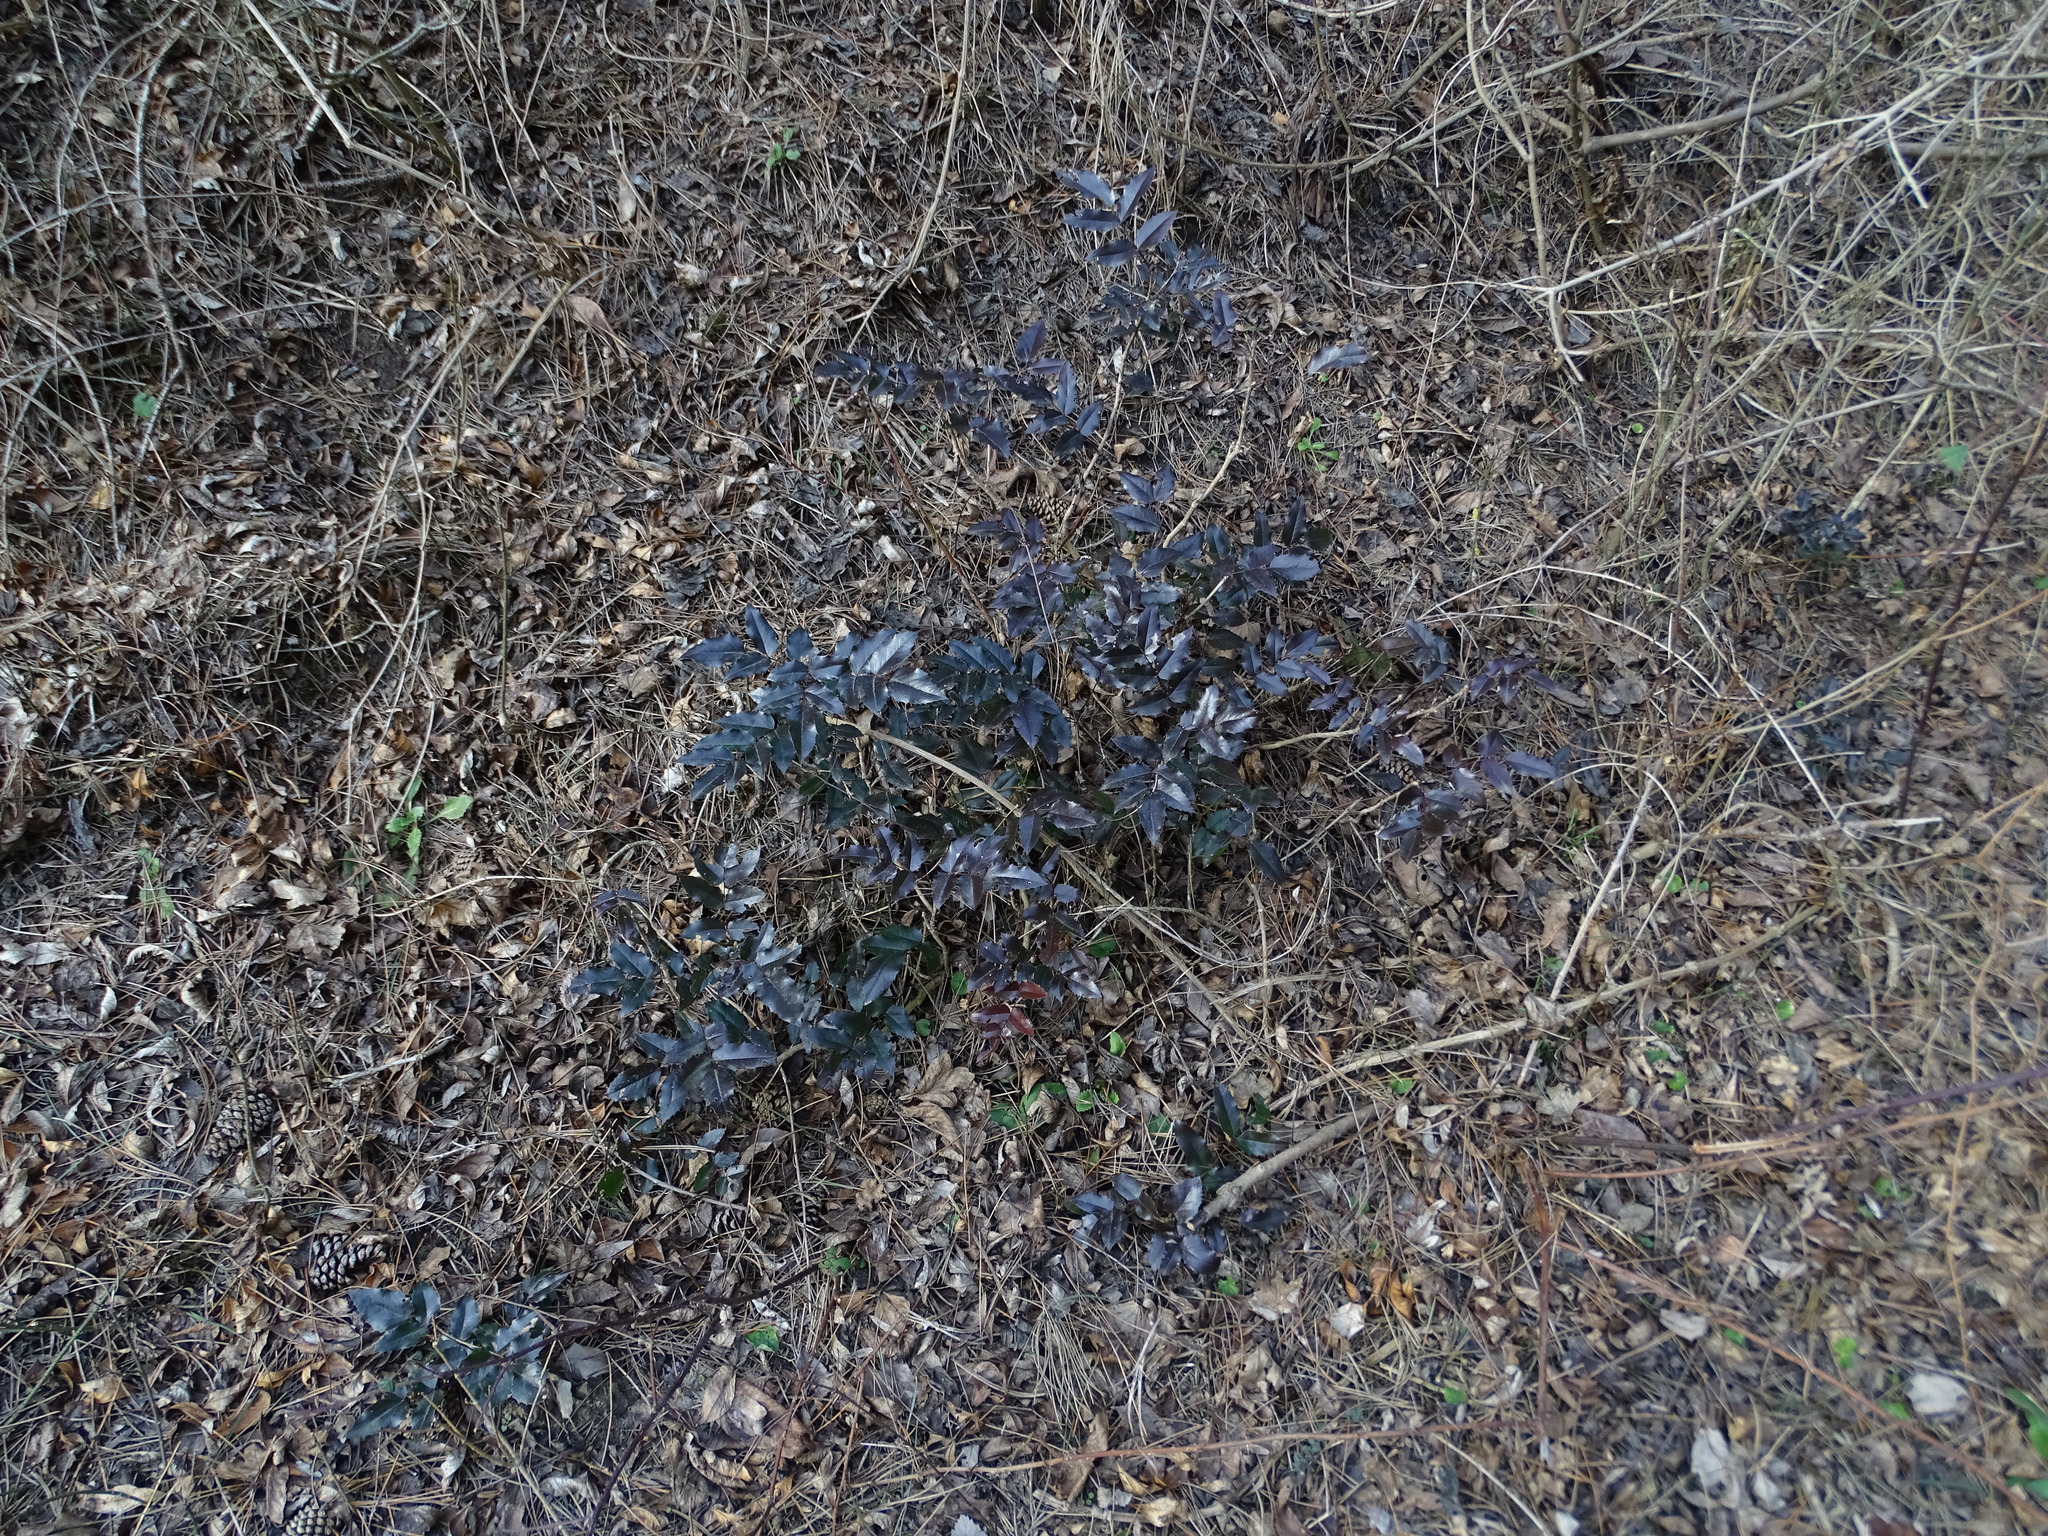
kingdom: Plantae
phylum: Tracheophyta
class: Magnoliopsida
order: Ranunculales
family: Berberidaceae
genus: Mahonia
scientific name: Mahonia aquifolium
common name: Oregon-grape
